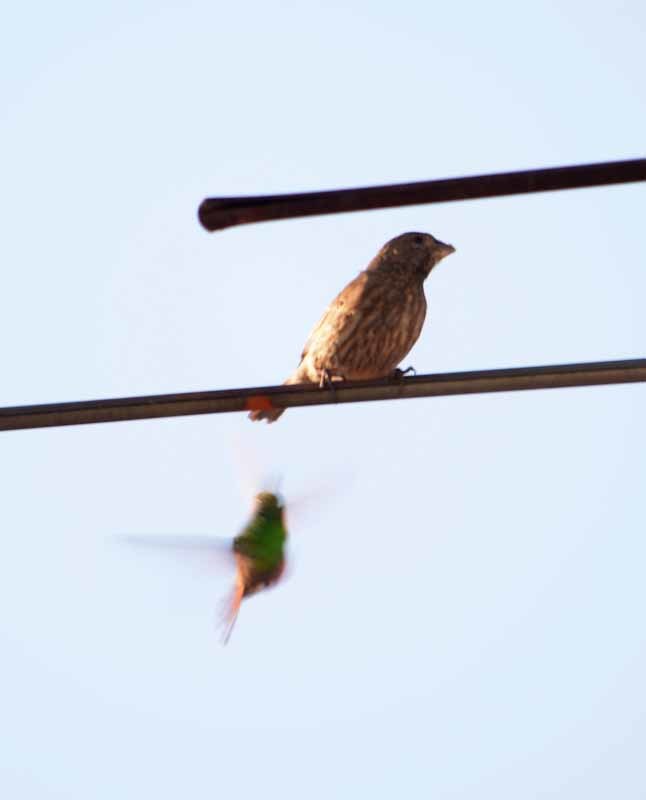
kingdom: Animalia
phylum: Chordata
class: Aves
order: Passeriformes
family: Fringillidae
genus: Haemorhous
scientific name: Haemorhous mexicanus
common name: House finch
